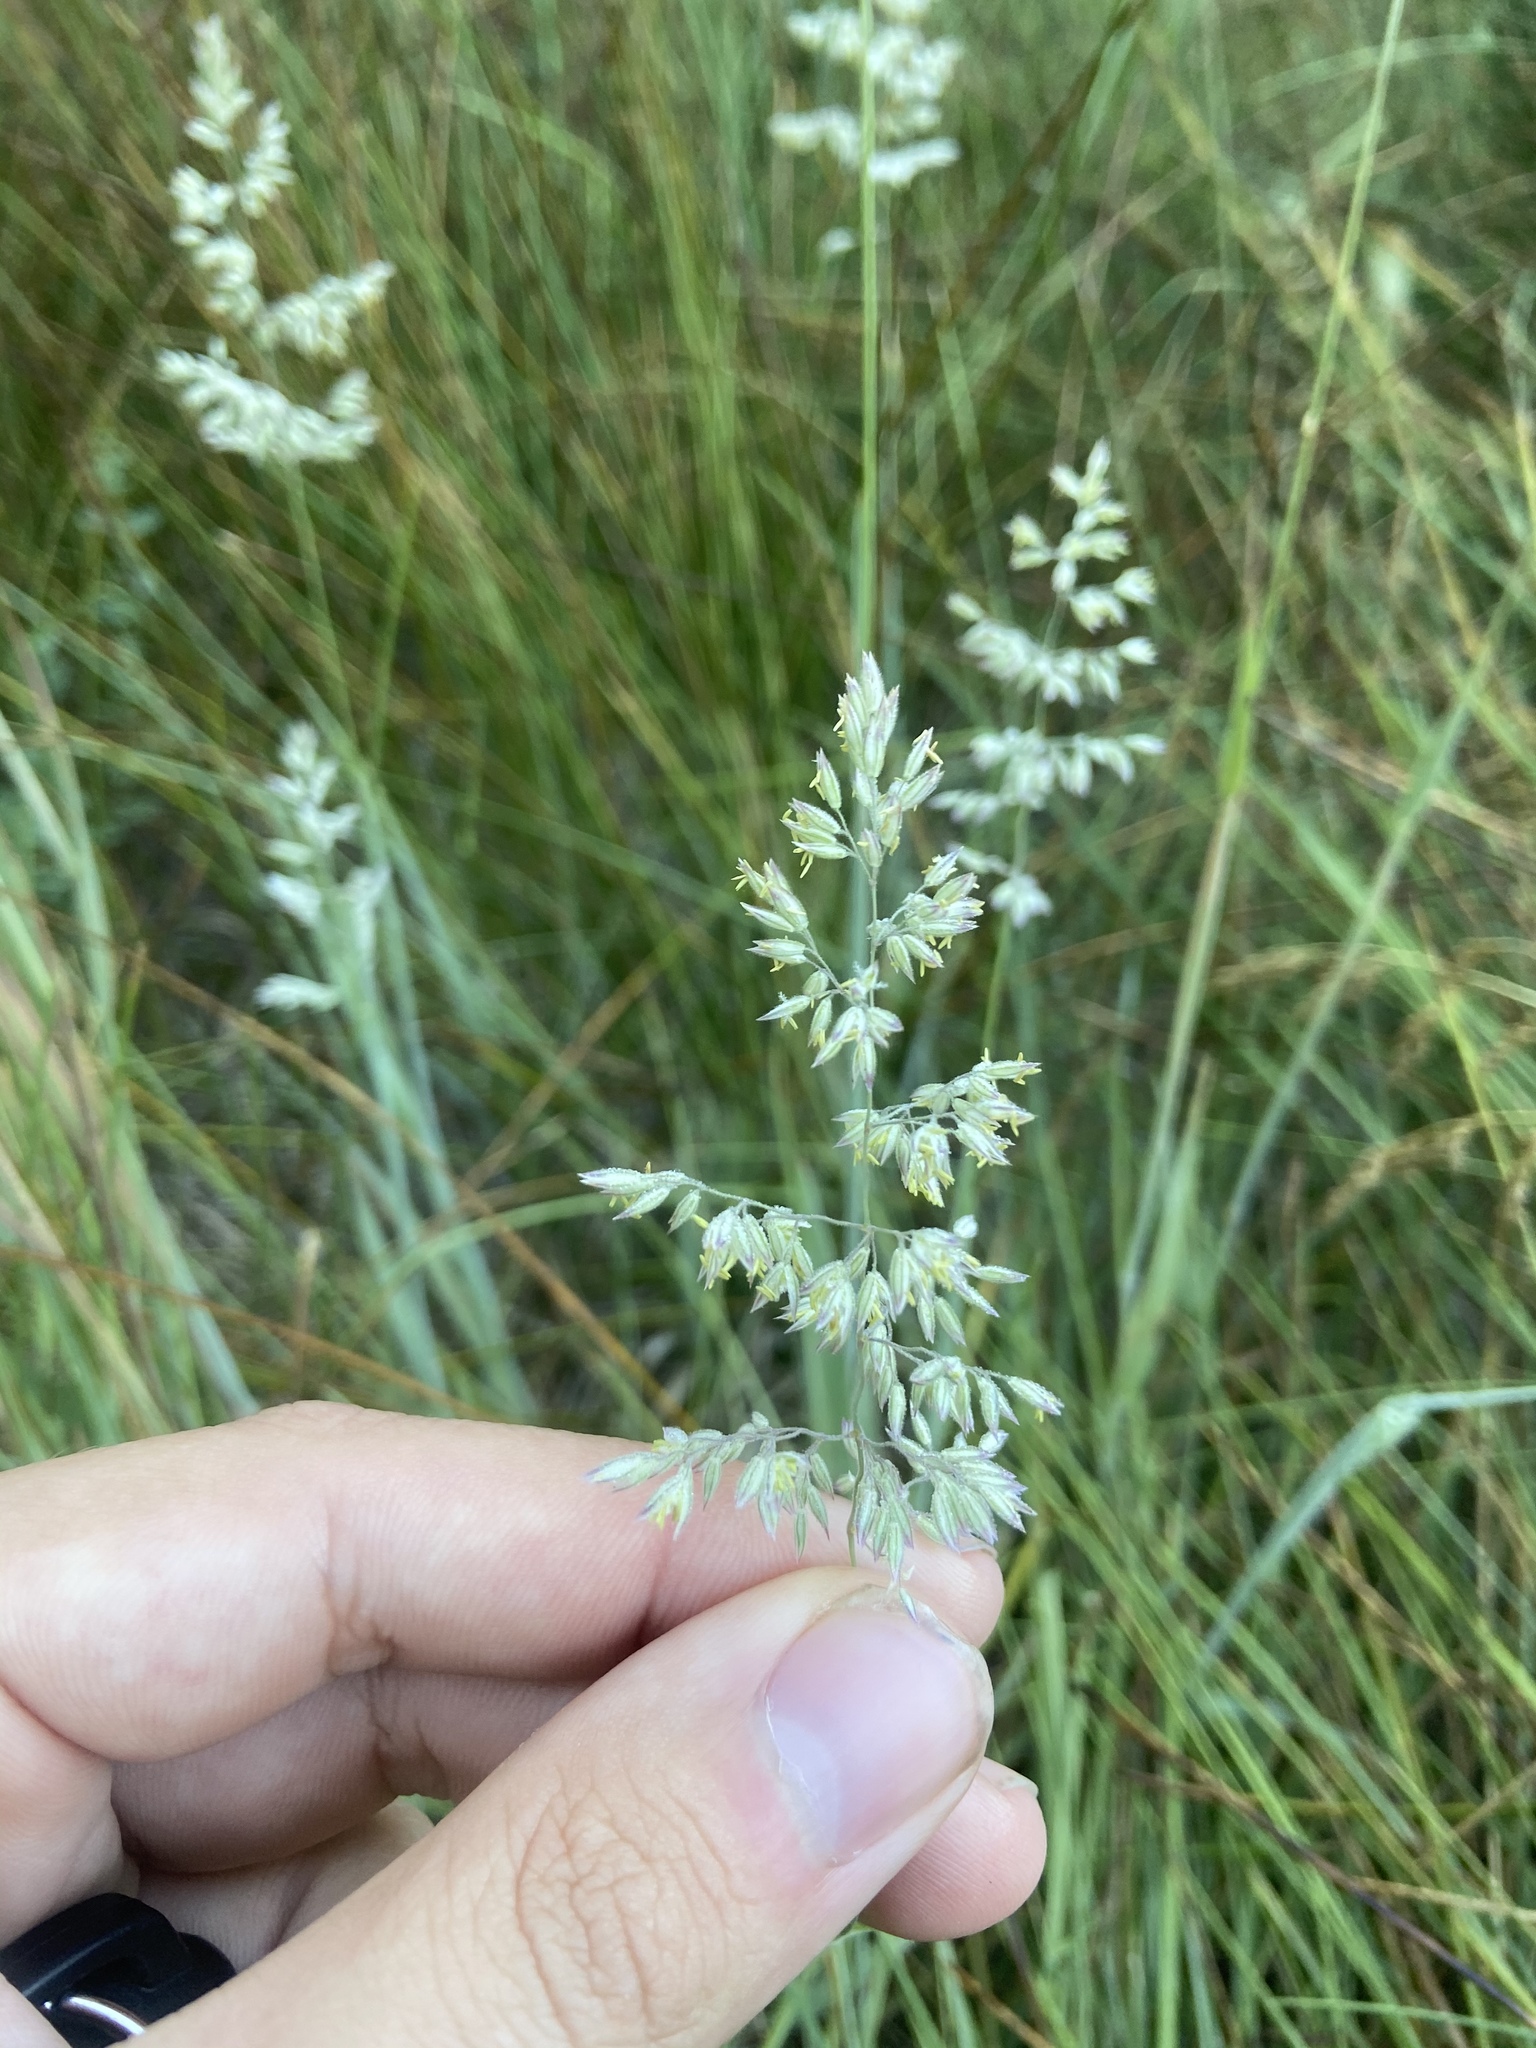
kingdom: Plantae
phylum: Tracheophyta
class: Liliopsida
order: Poales
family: Poaceae
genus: Holcus
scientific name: Holcus lanatus
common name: Yorkshire-fog
